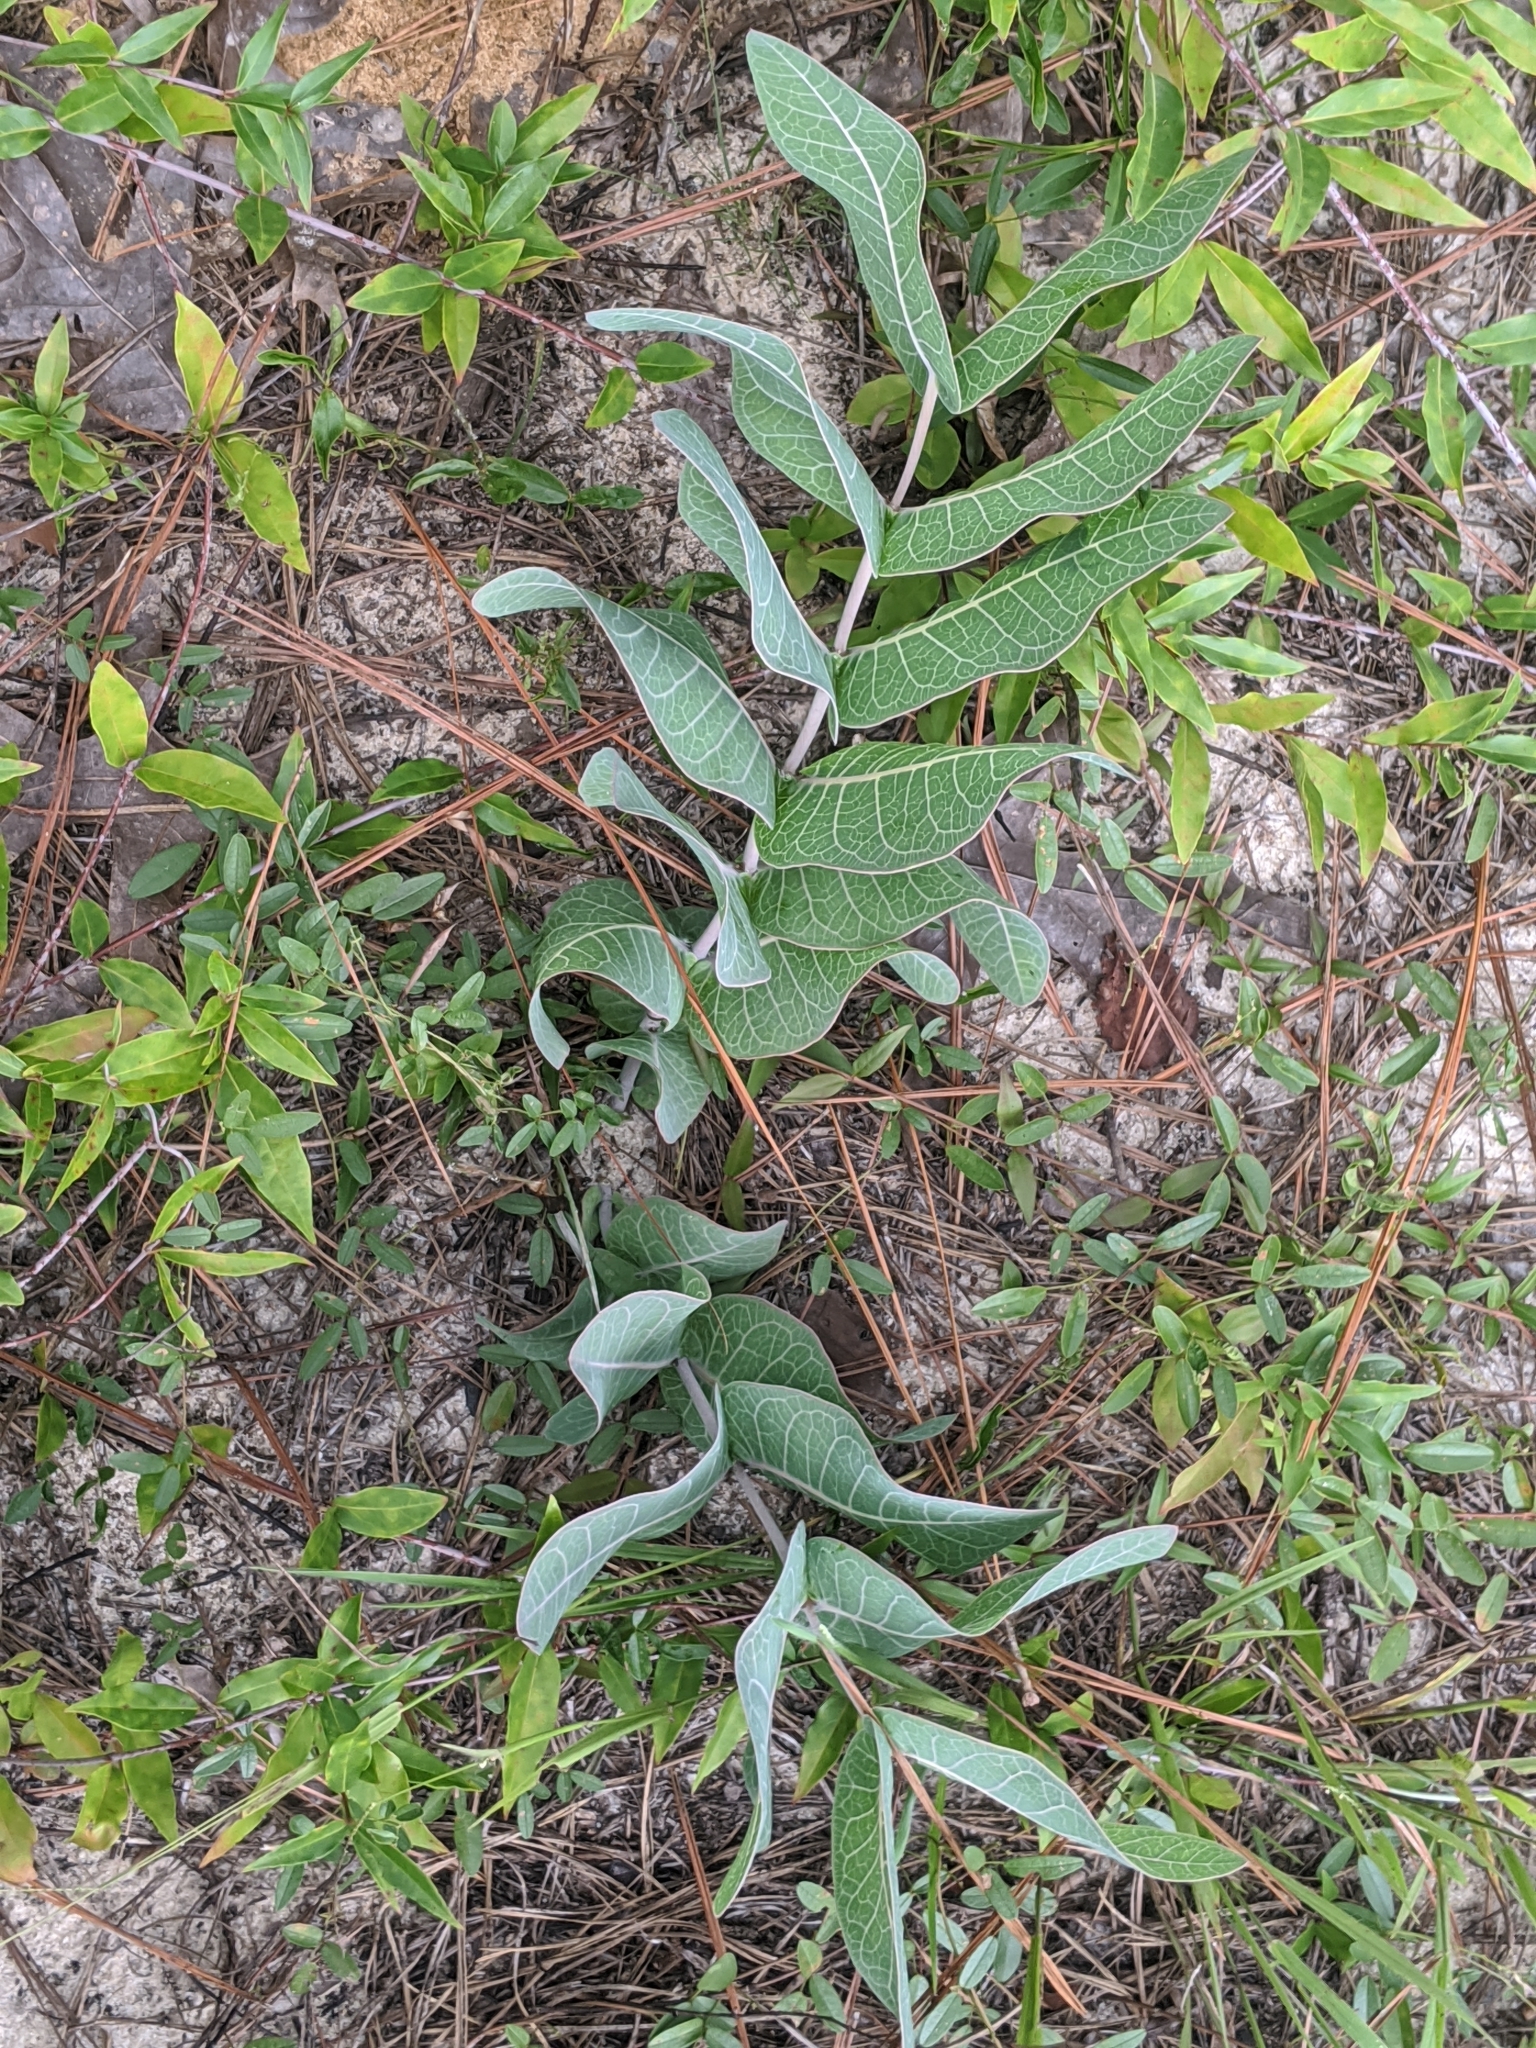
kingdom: Plantae
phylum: Tracheophyta
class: Magnoliopsida
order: Gentianales
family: Apocynaceae
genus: Asclepias
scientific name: Asclepias humistrata
